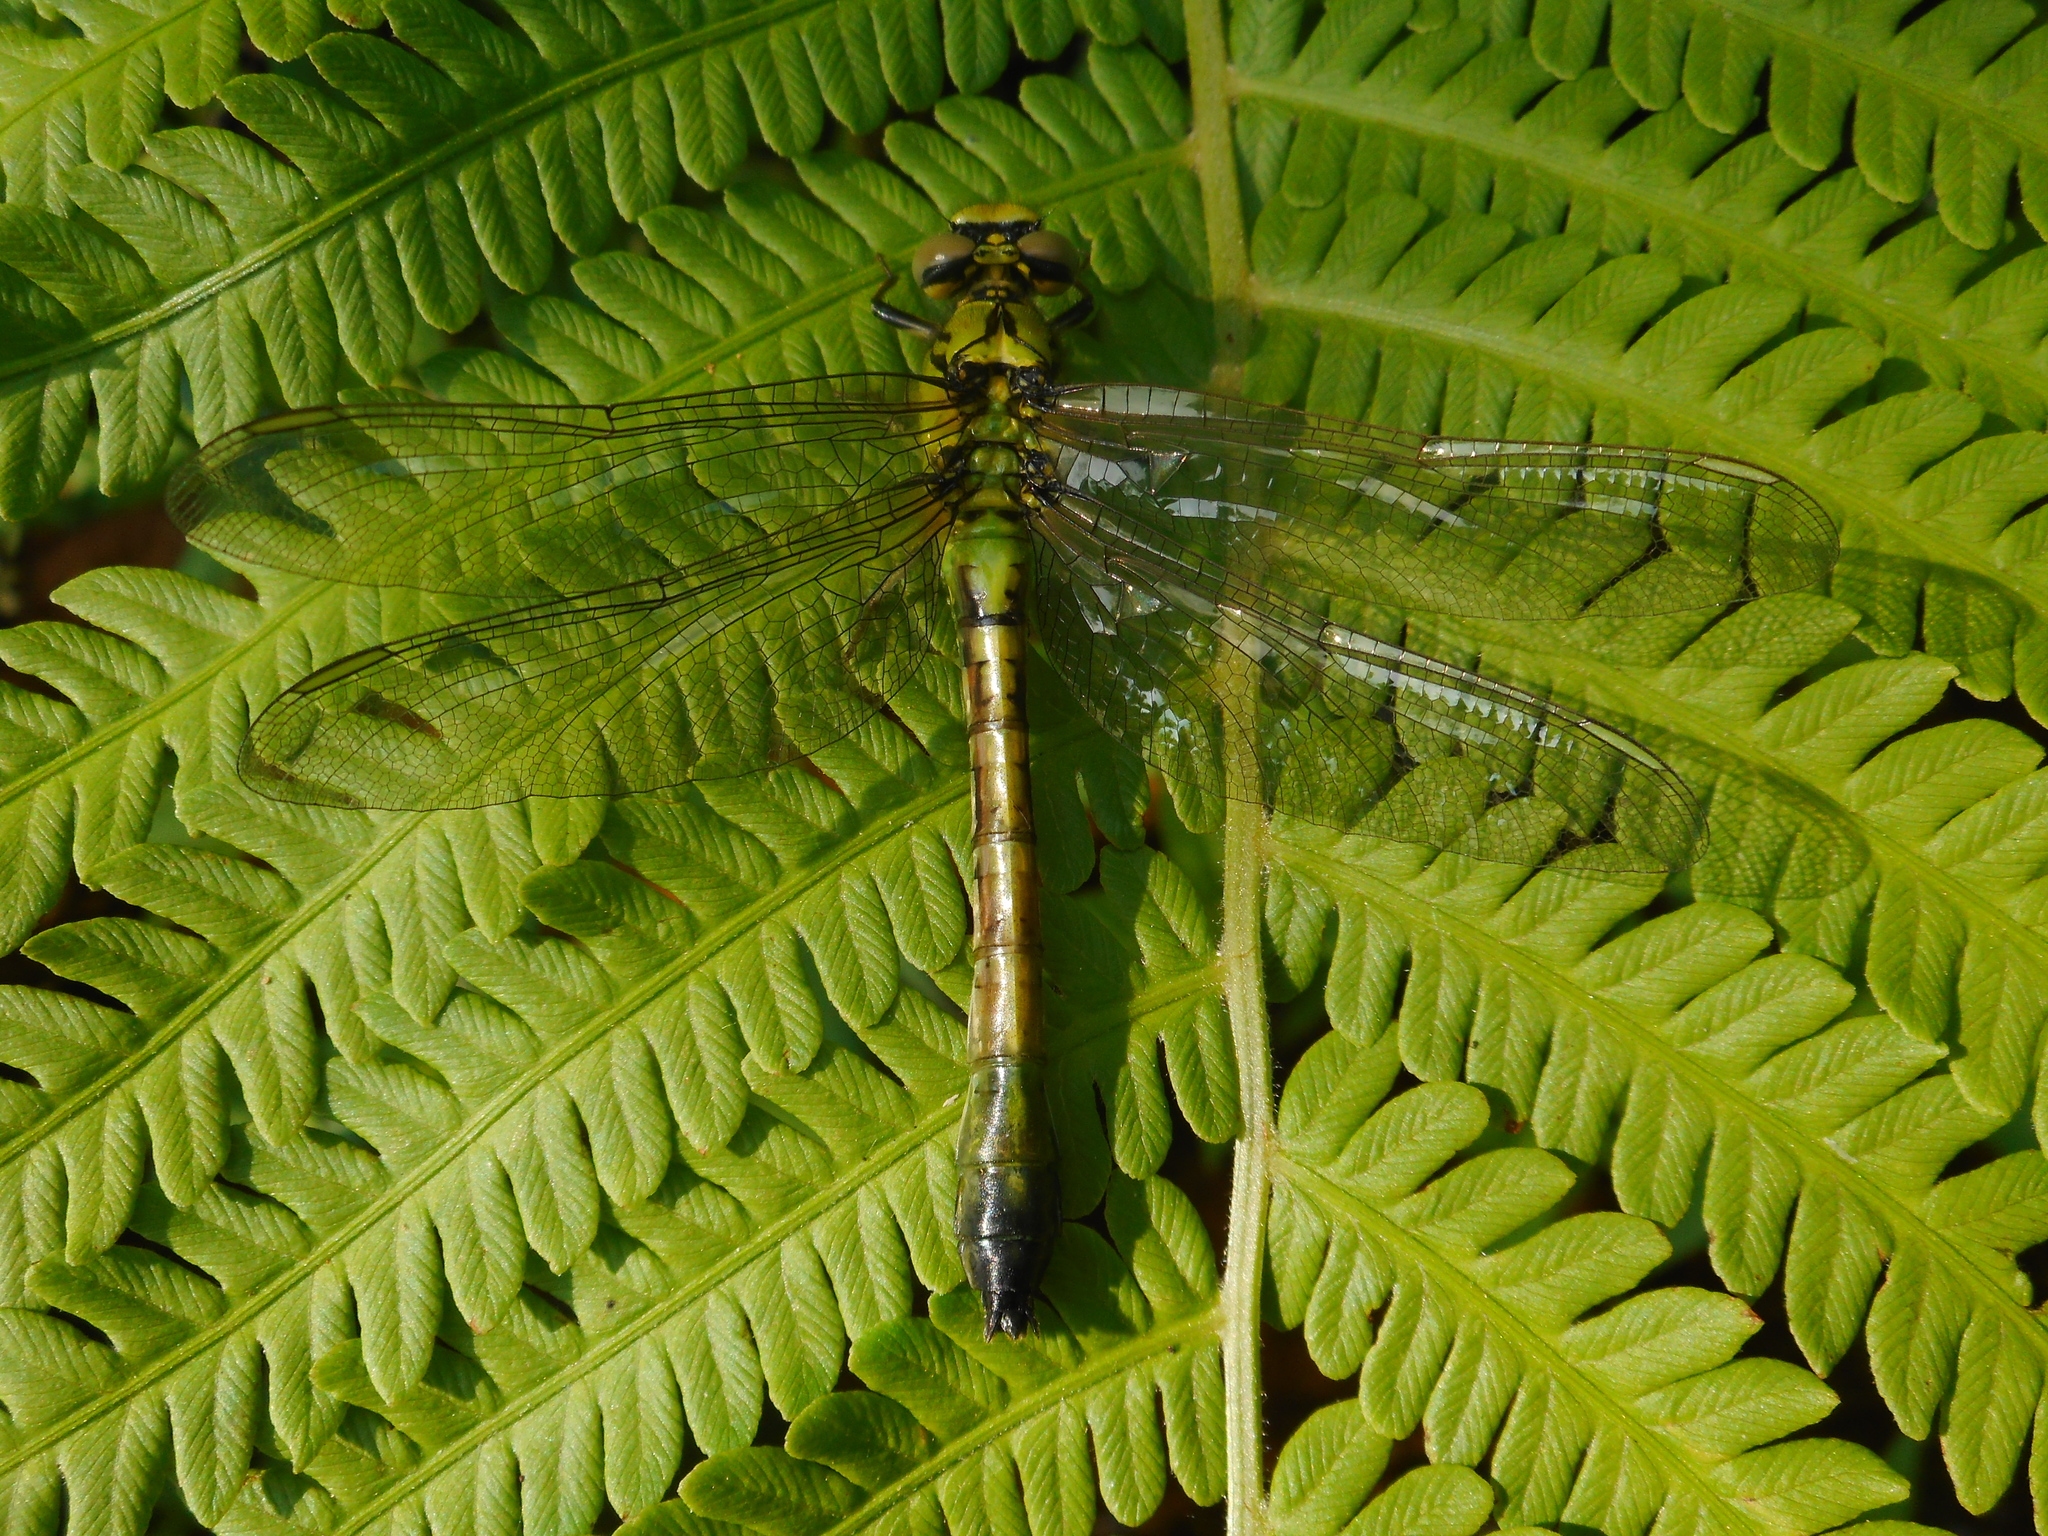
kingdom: Animalia
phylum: Arthropoda
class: Insecta
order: Odonata
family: Gomphidae
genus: Ophiogomphus
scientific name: Ophiogomphus cecilia
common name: Green snaketail
